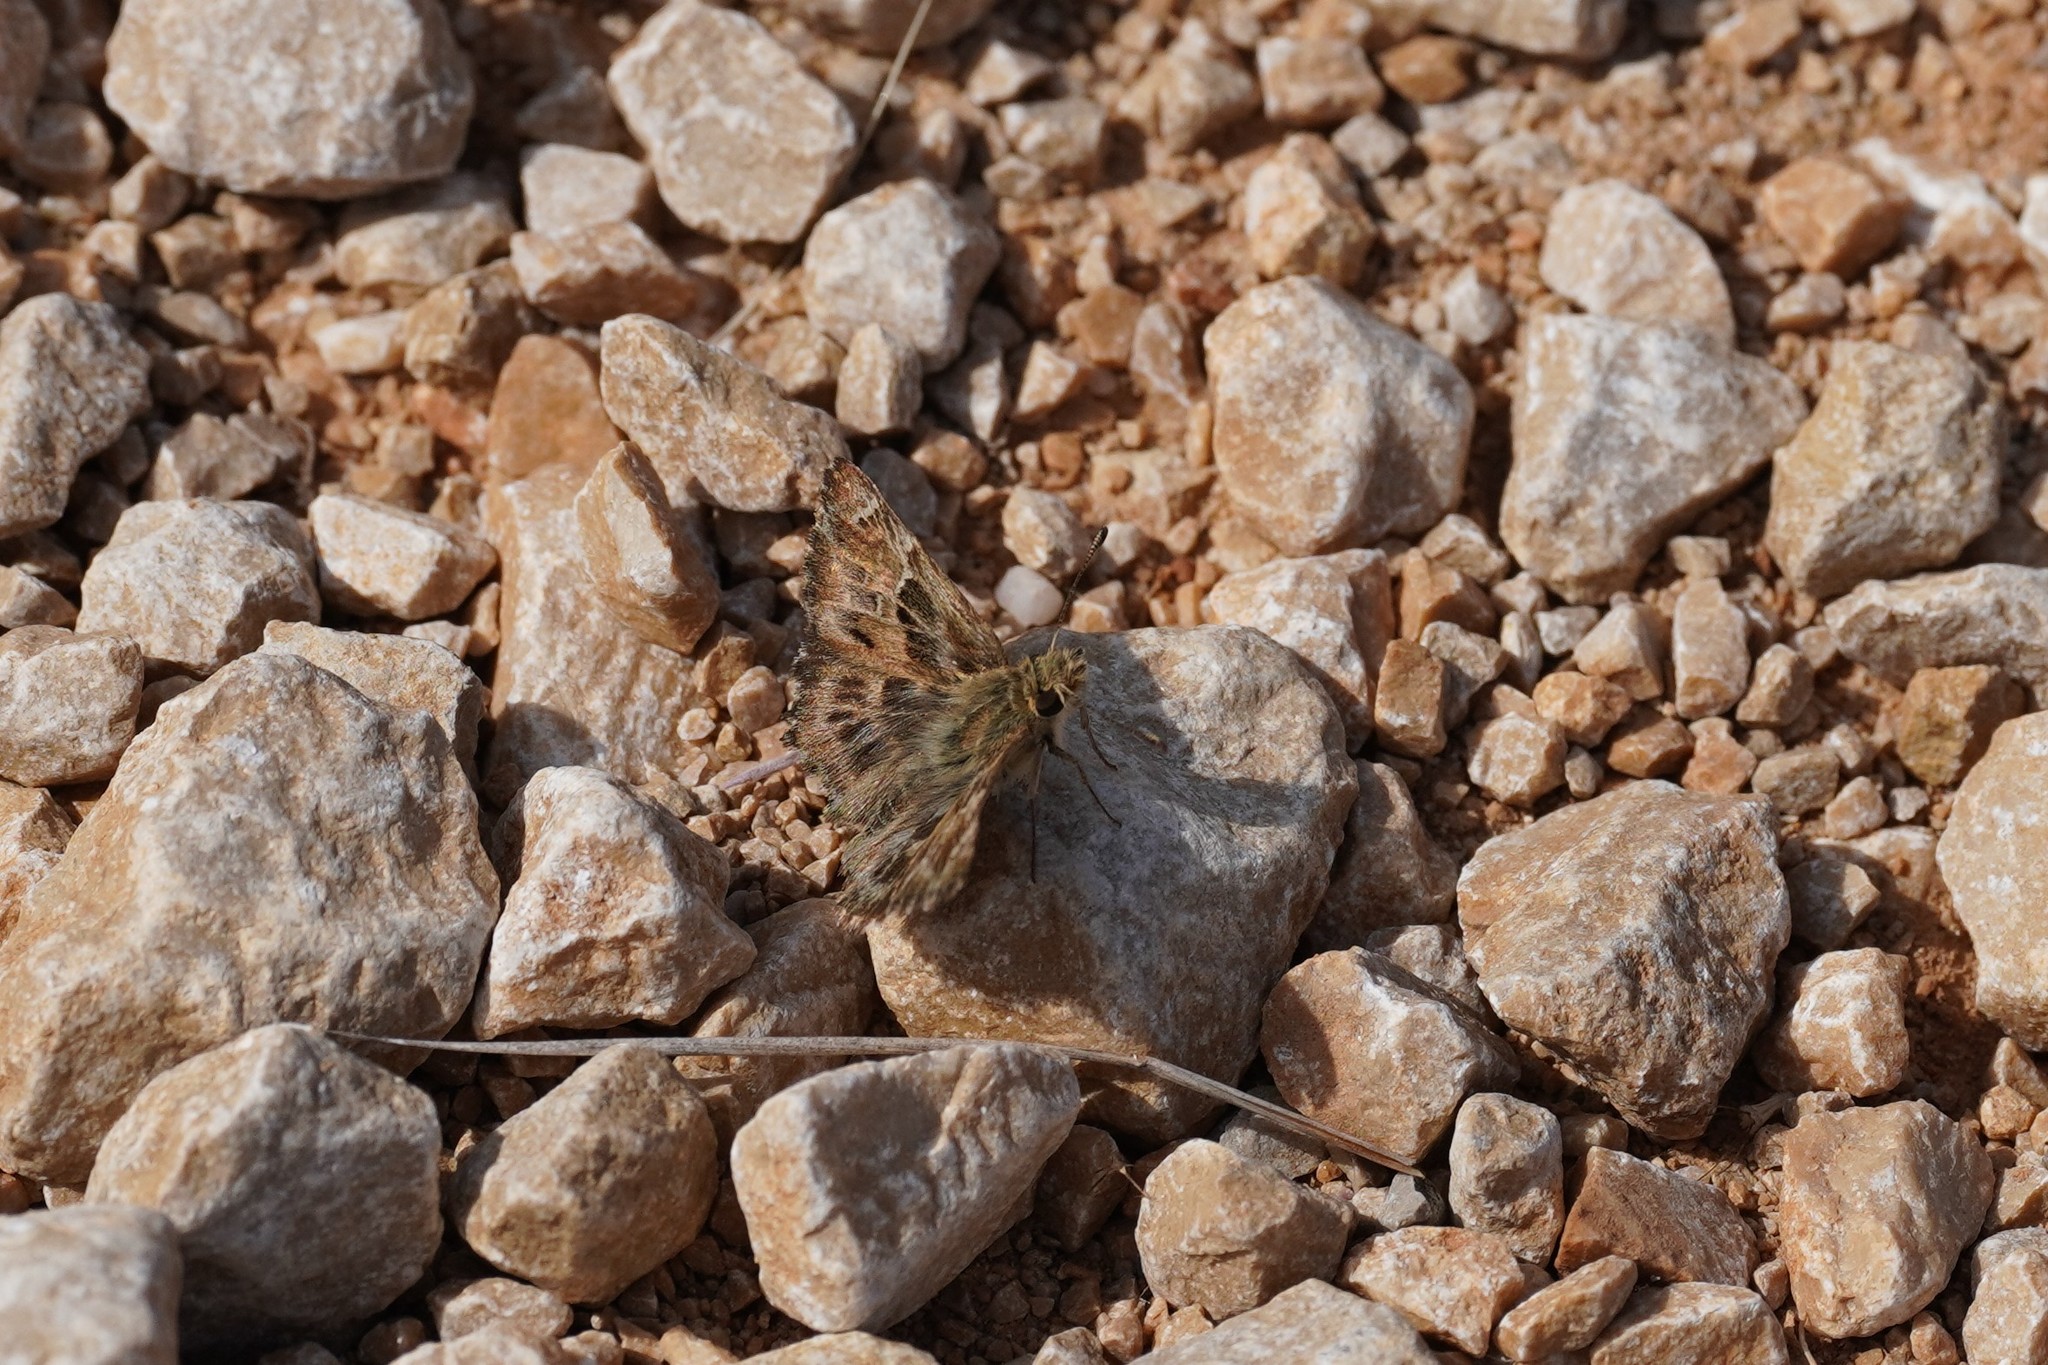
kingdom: Animalia
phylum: Arthropoda
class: Insecta
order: Lepidoptera
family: Hesperiidae
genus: Carcharodus
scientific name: Carcharodus alceae
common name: Mallow skipper
